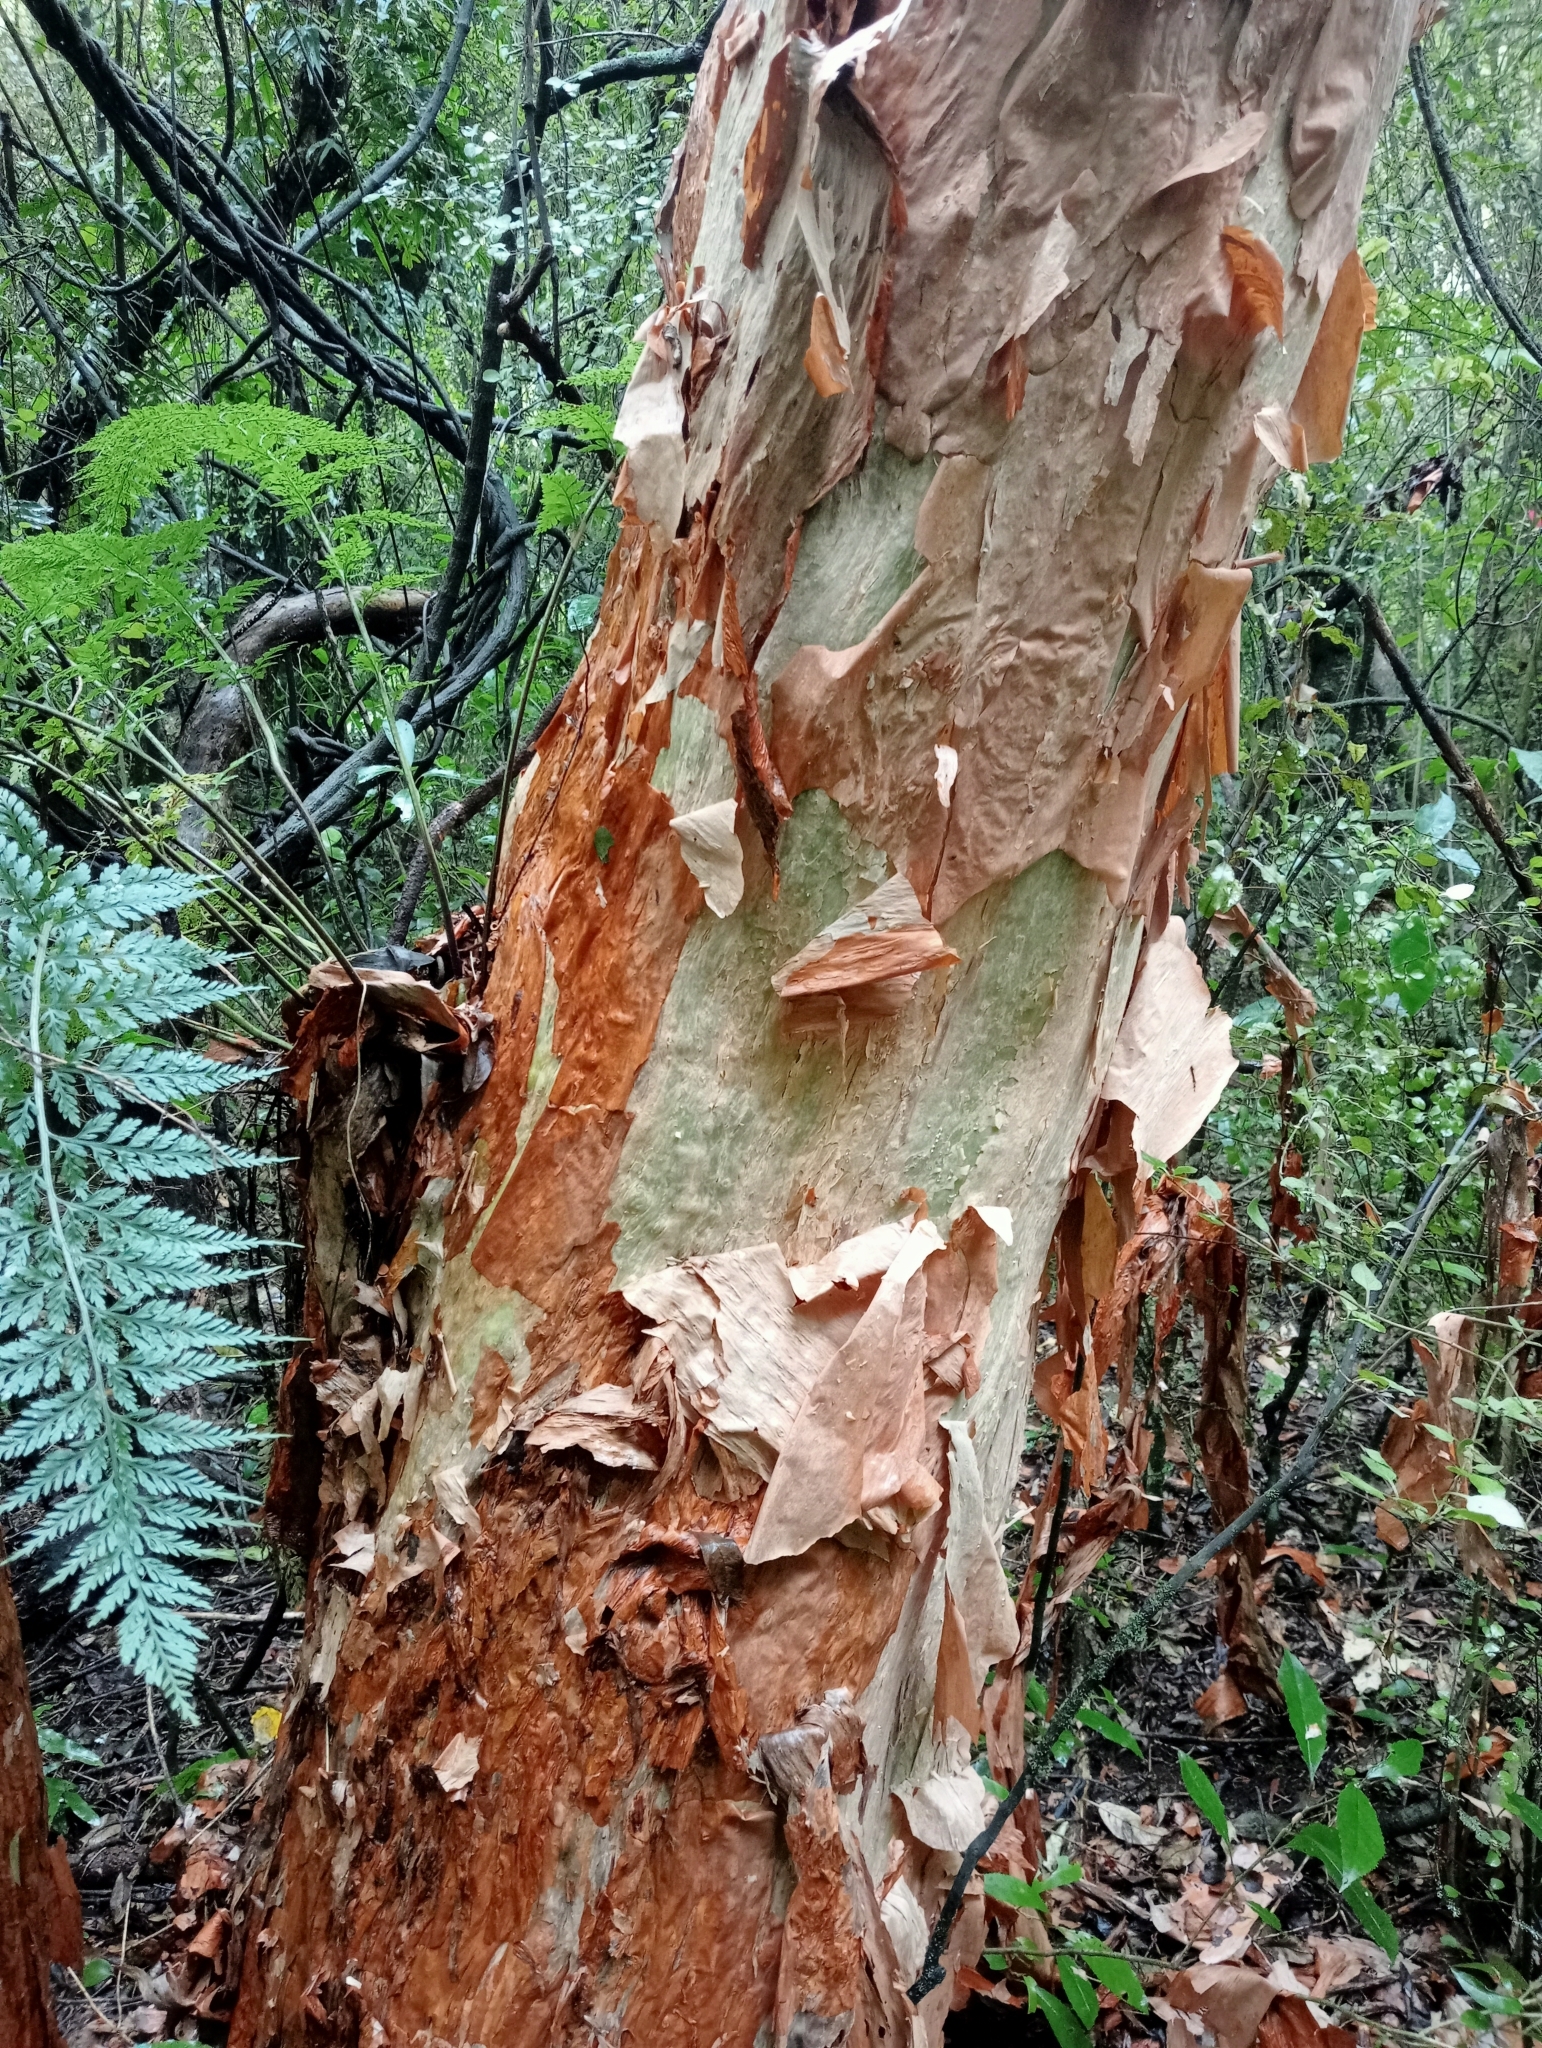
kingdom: Plantae
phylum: Tracheophyta
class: Magnoliopsida
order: Myrtales
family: Onagraceae
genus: Fuchsia
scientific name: Fuchsia excorticata
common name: Tree fuchsia
